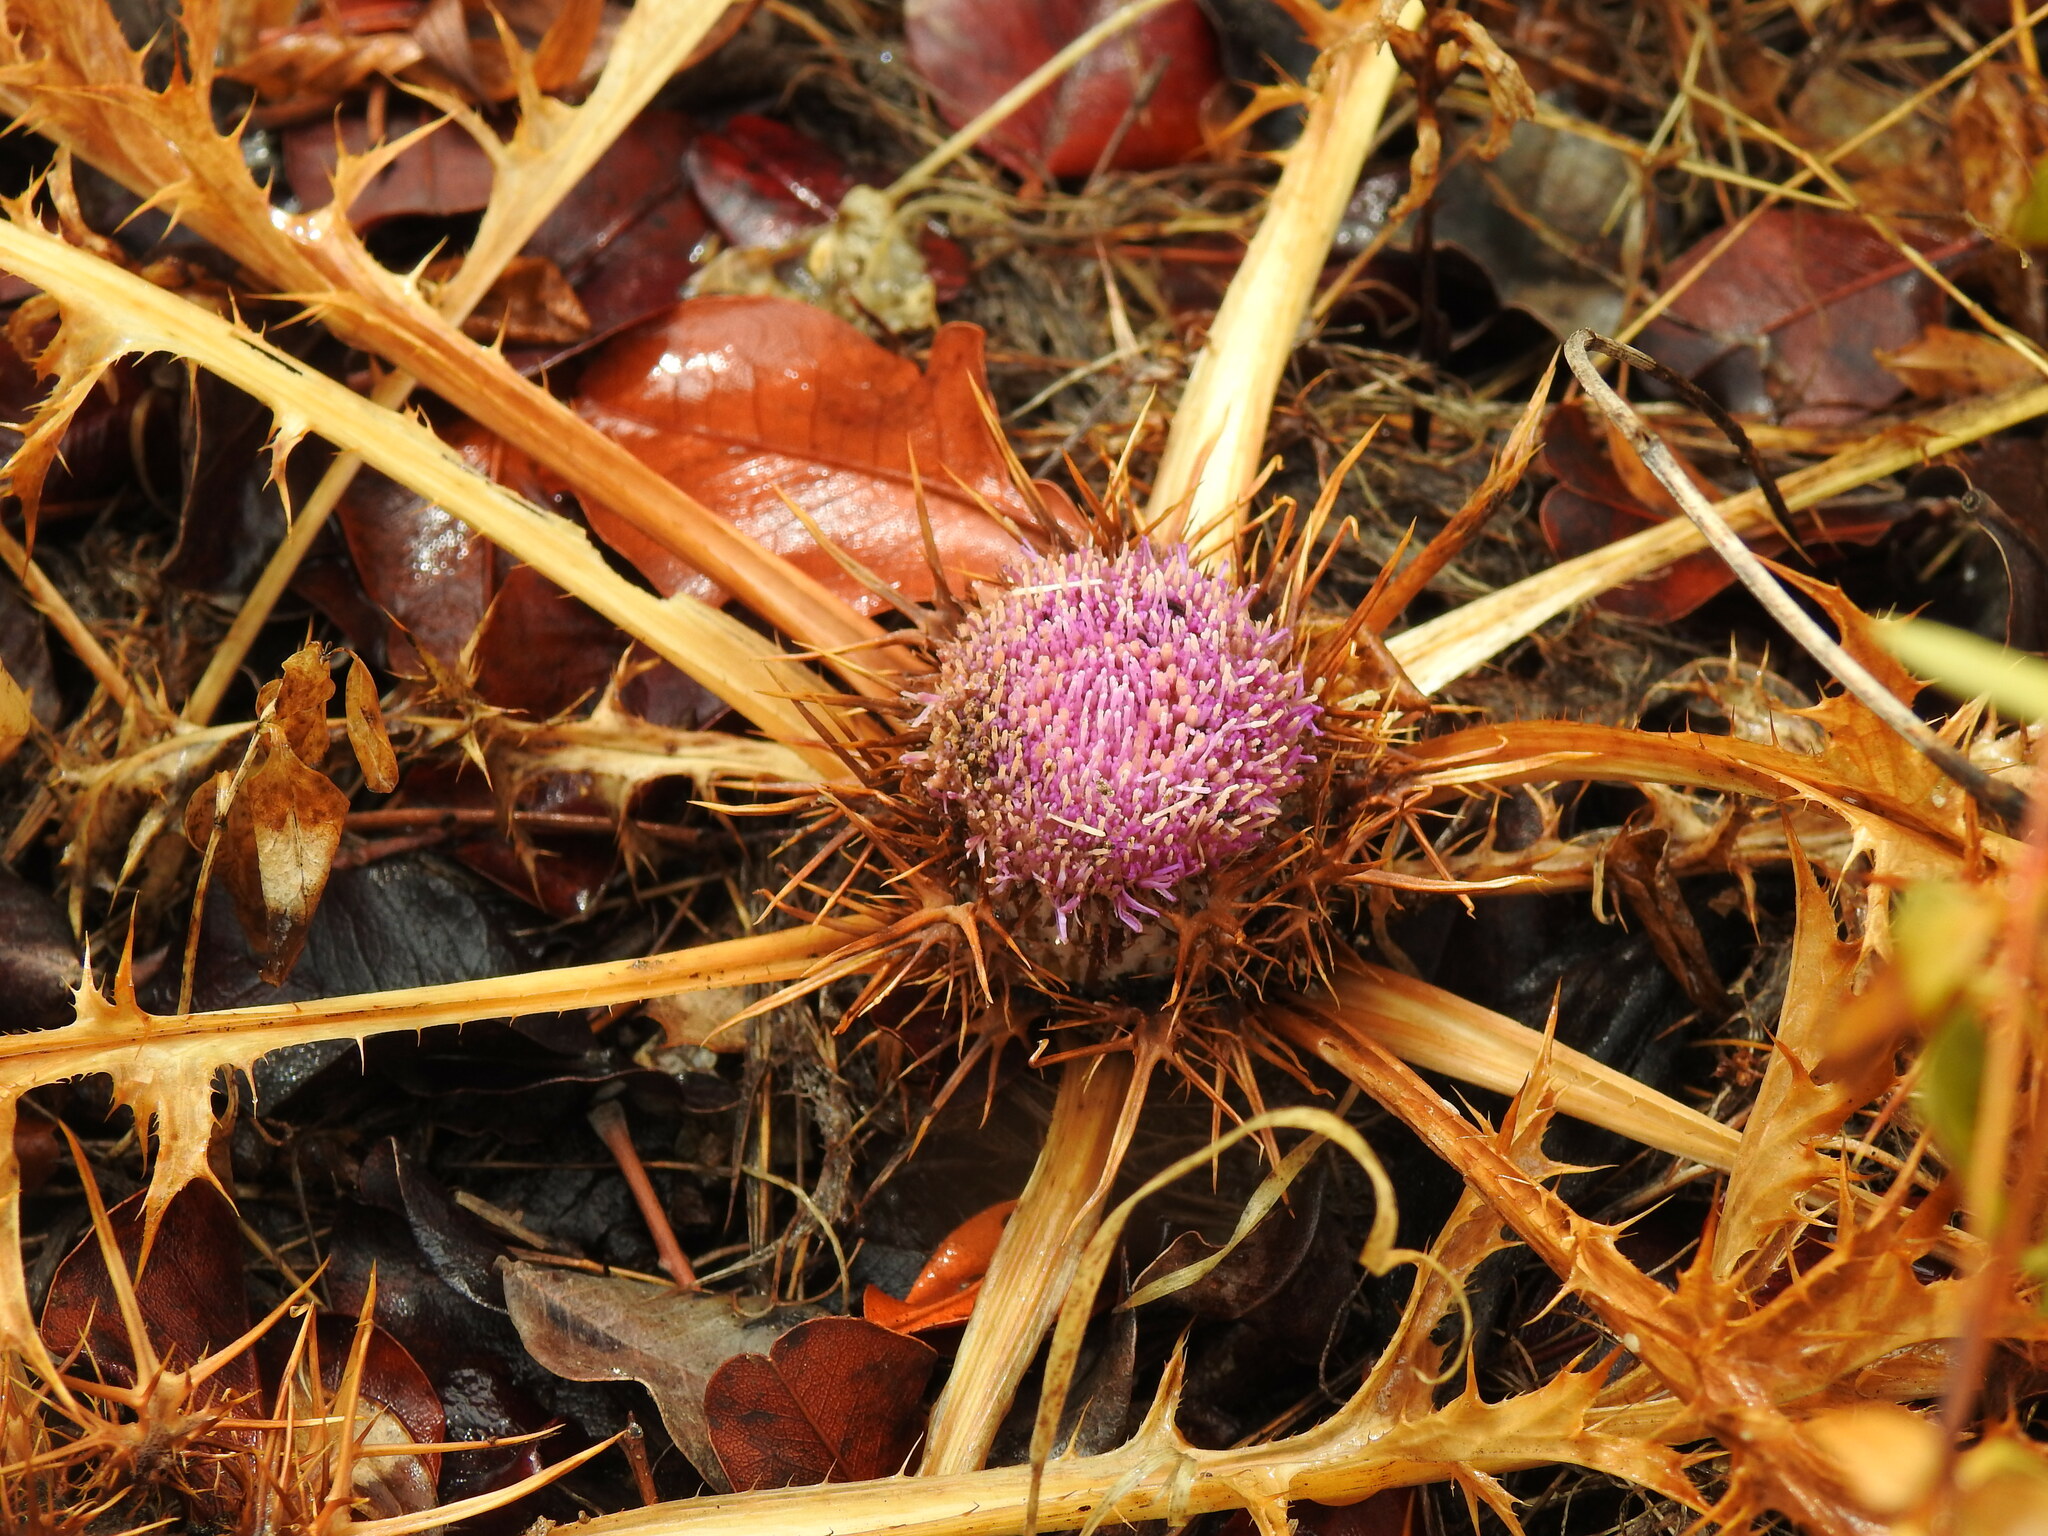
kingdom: Plantae
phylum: Tracheophyta
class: Magnoliopsida
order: Asterales
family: Asteraceae
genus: Chamaeleon
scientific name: Chamaeleon gummifer
